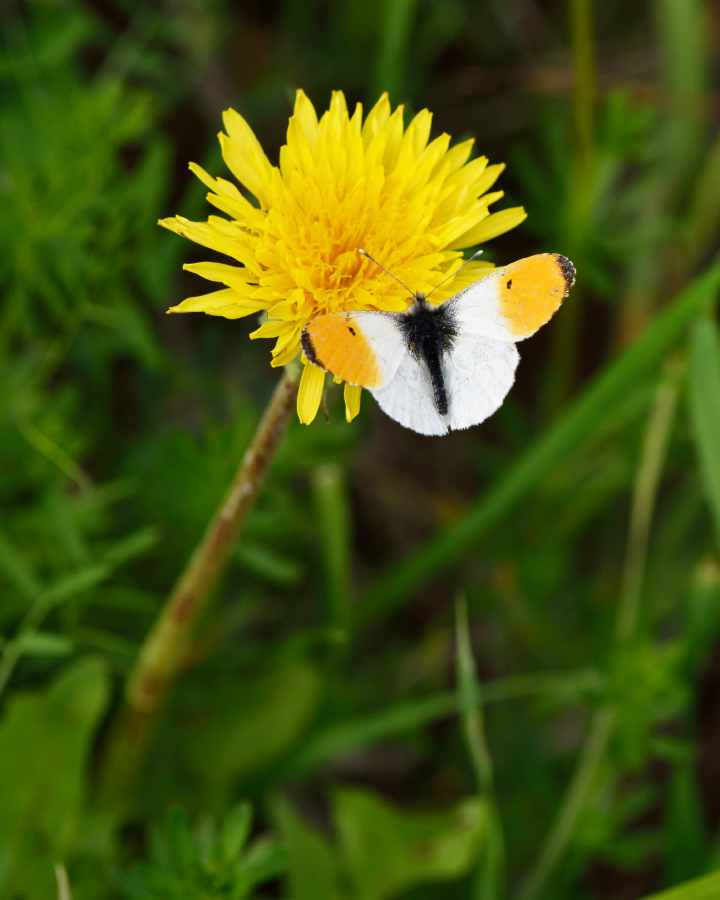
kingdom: Animalia
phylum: Arthropoda
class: Insecta
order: Lepidoptera
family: Pieridae
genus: Anthocharis
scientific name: Anthocharis cardamines
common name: Orange-tip
